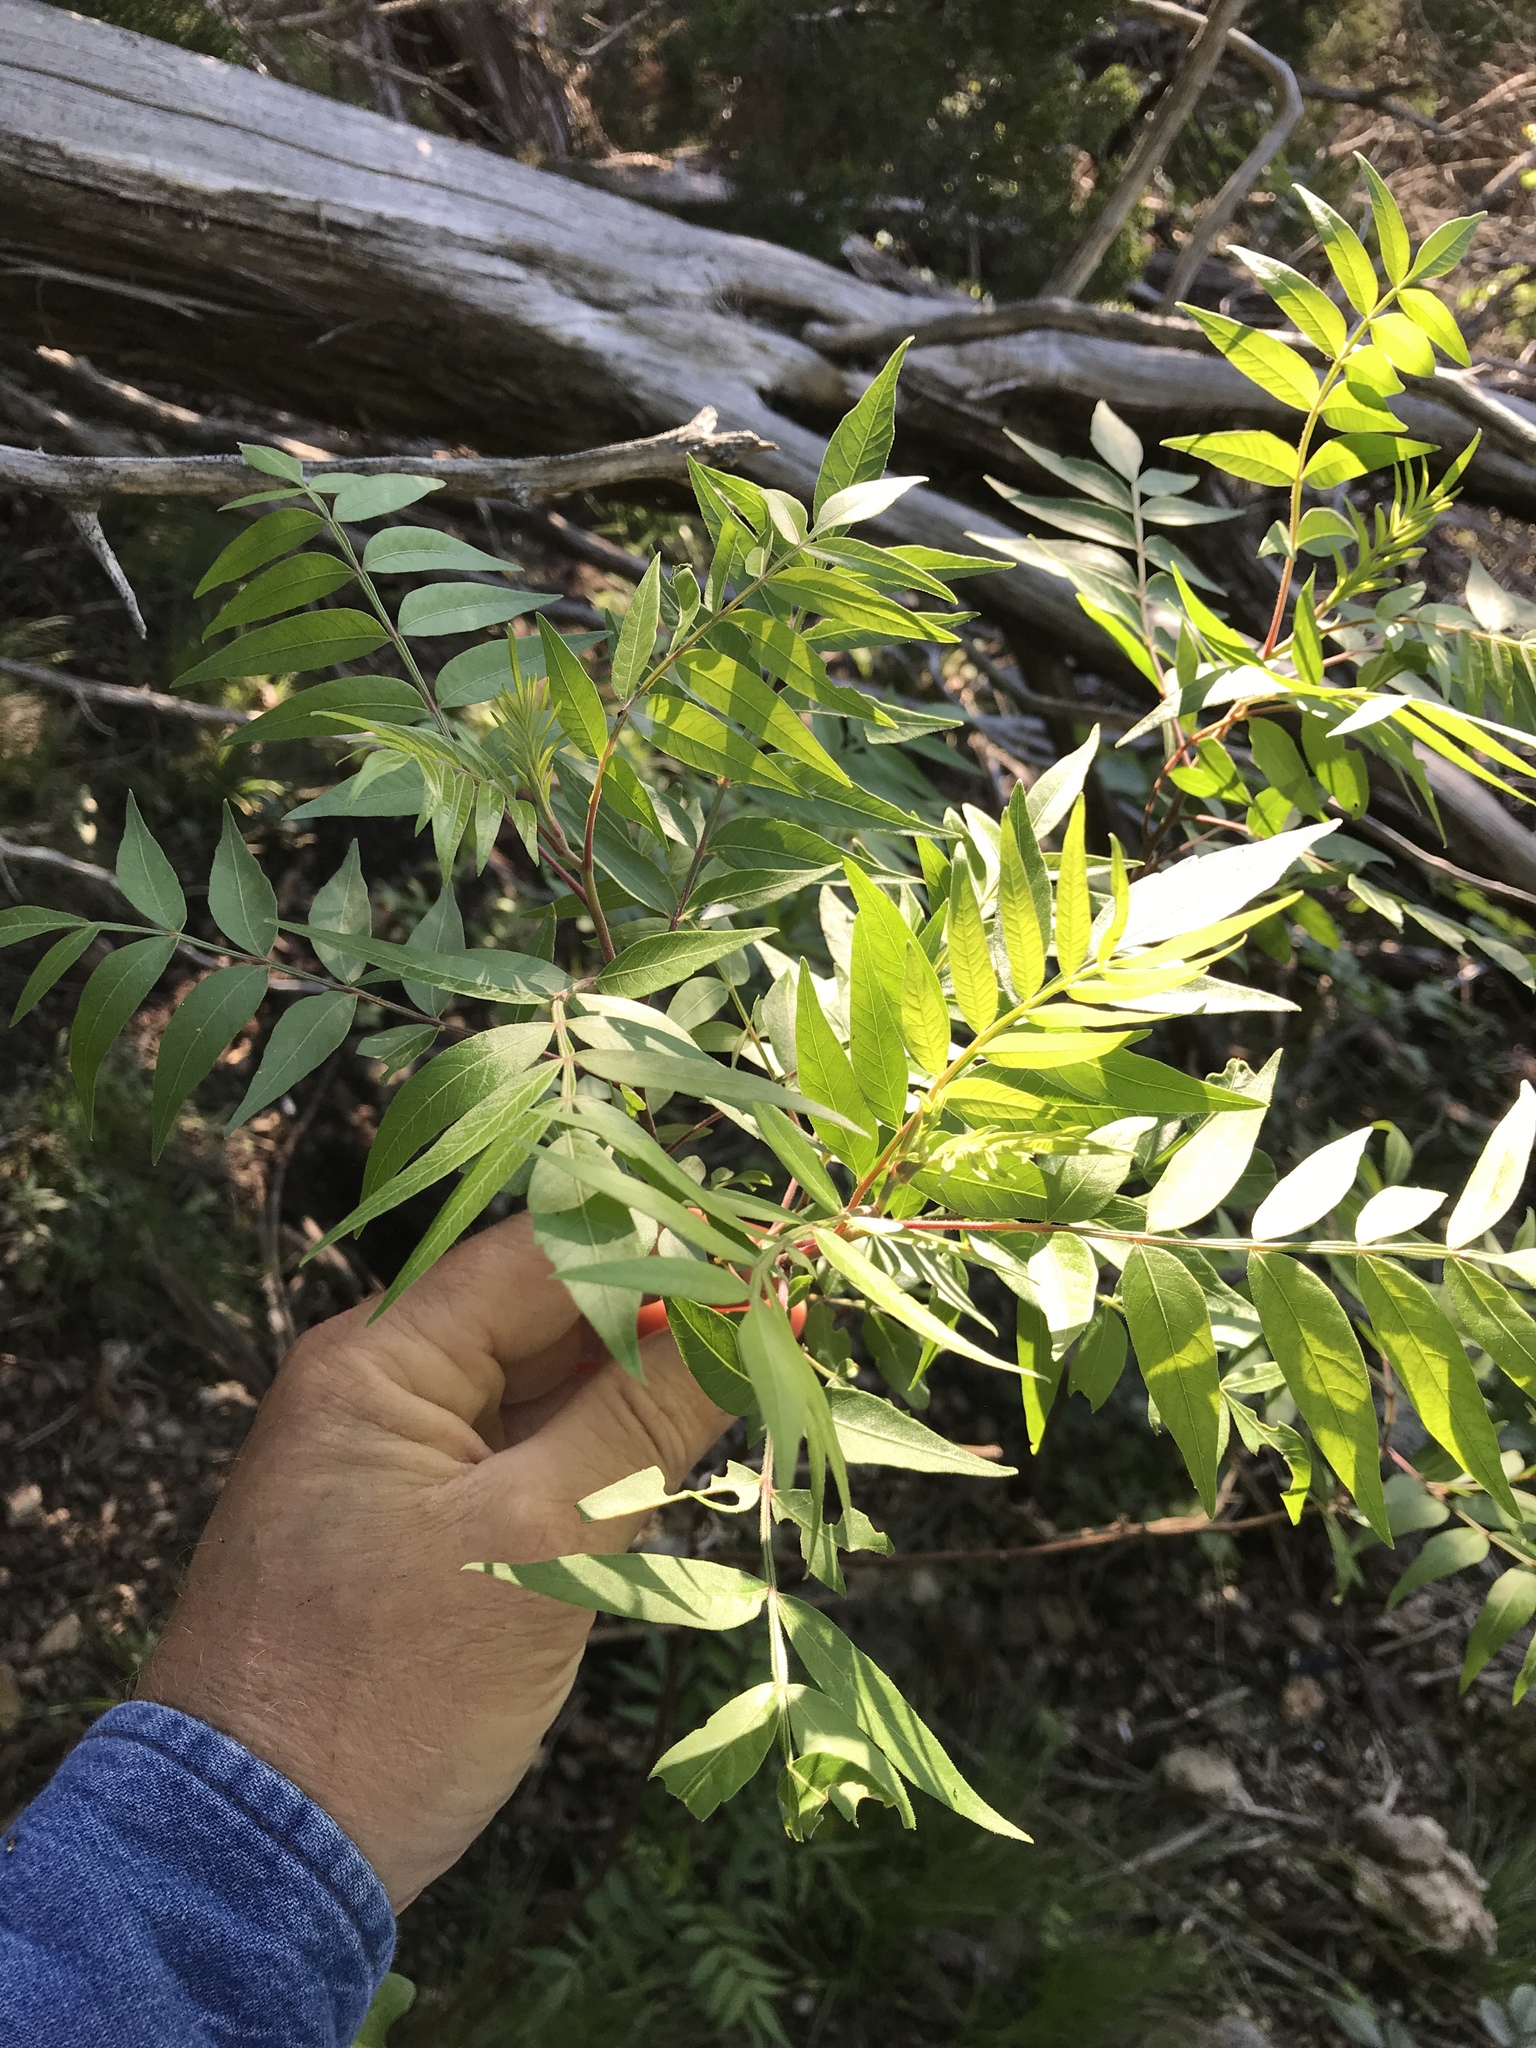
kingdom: Plantae
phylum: Tracheophyta
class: Magnoliopsida
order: Sapindales
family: Anacardiaceae
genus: Rhus
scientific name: Rhus lanceolata
